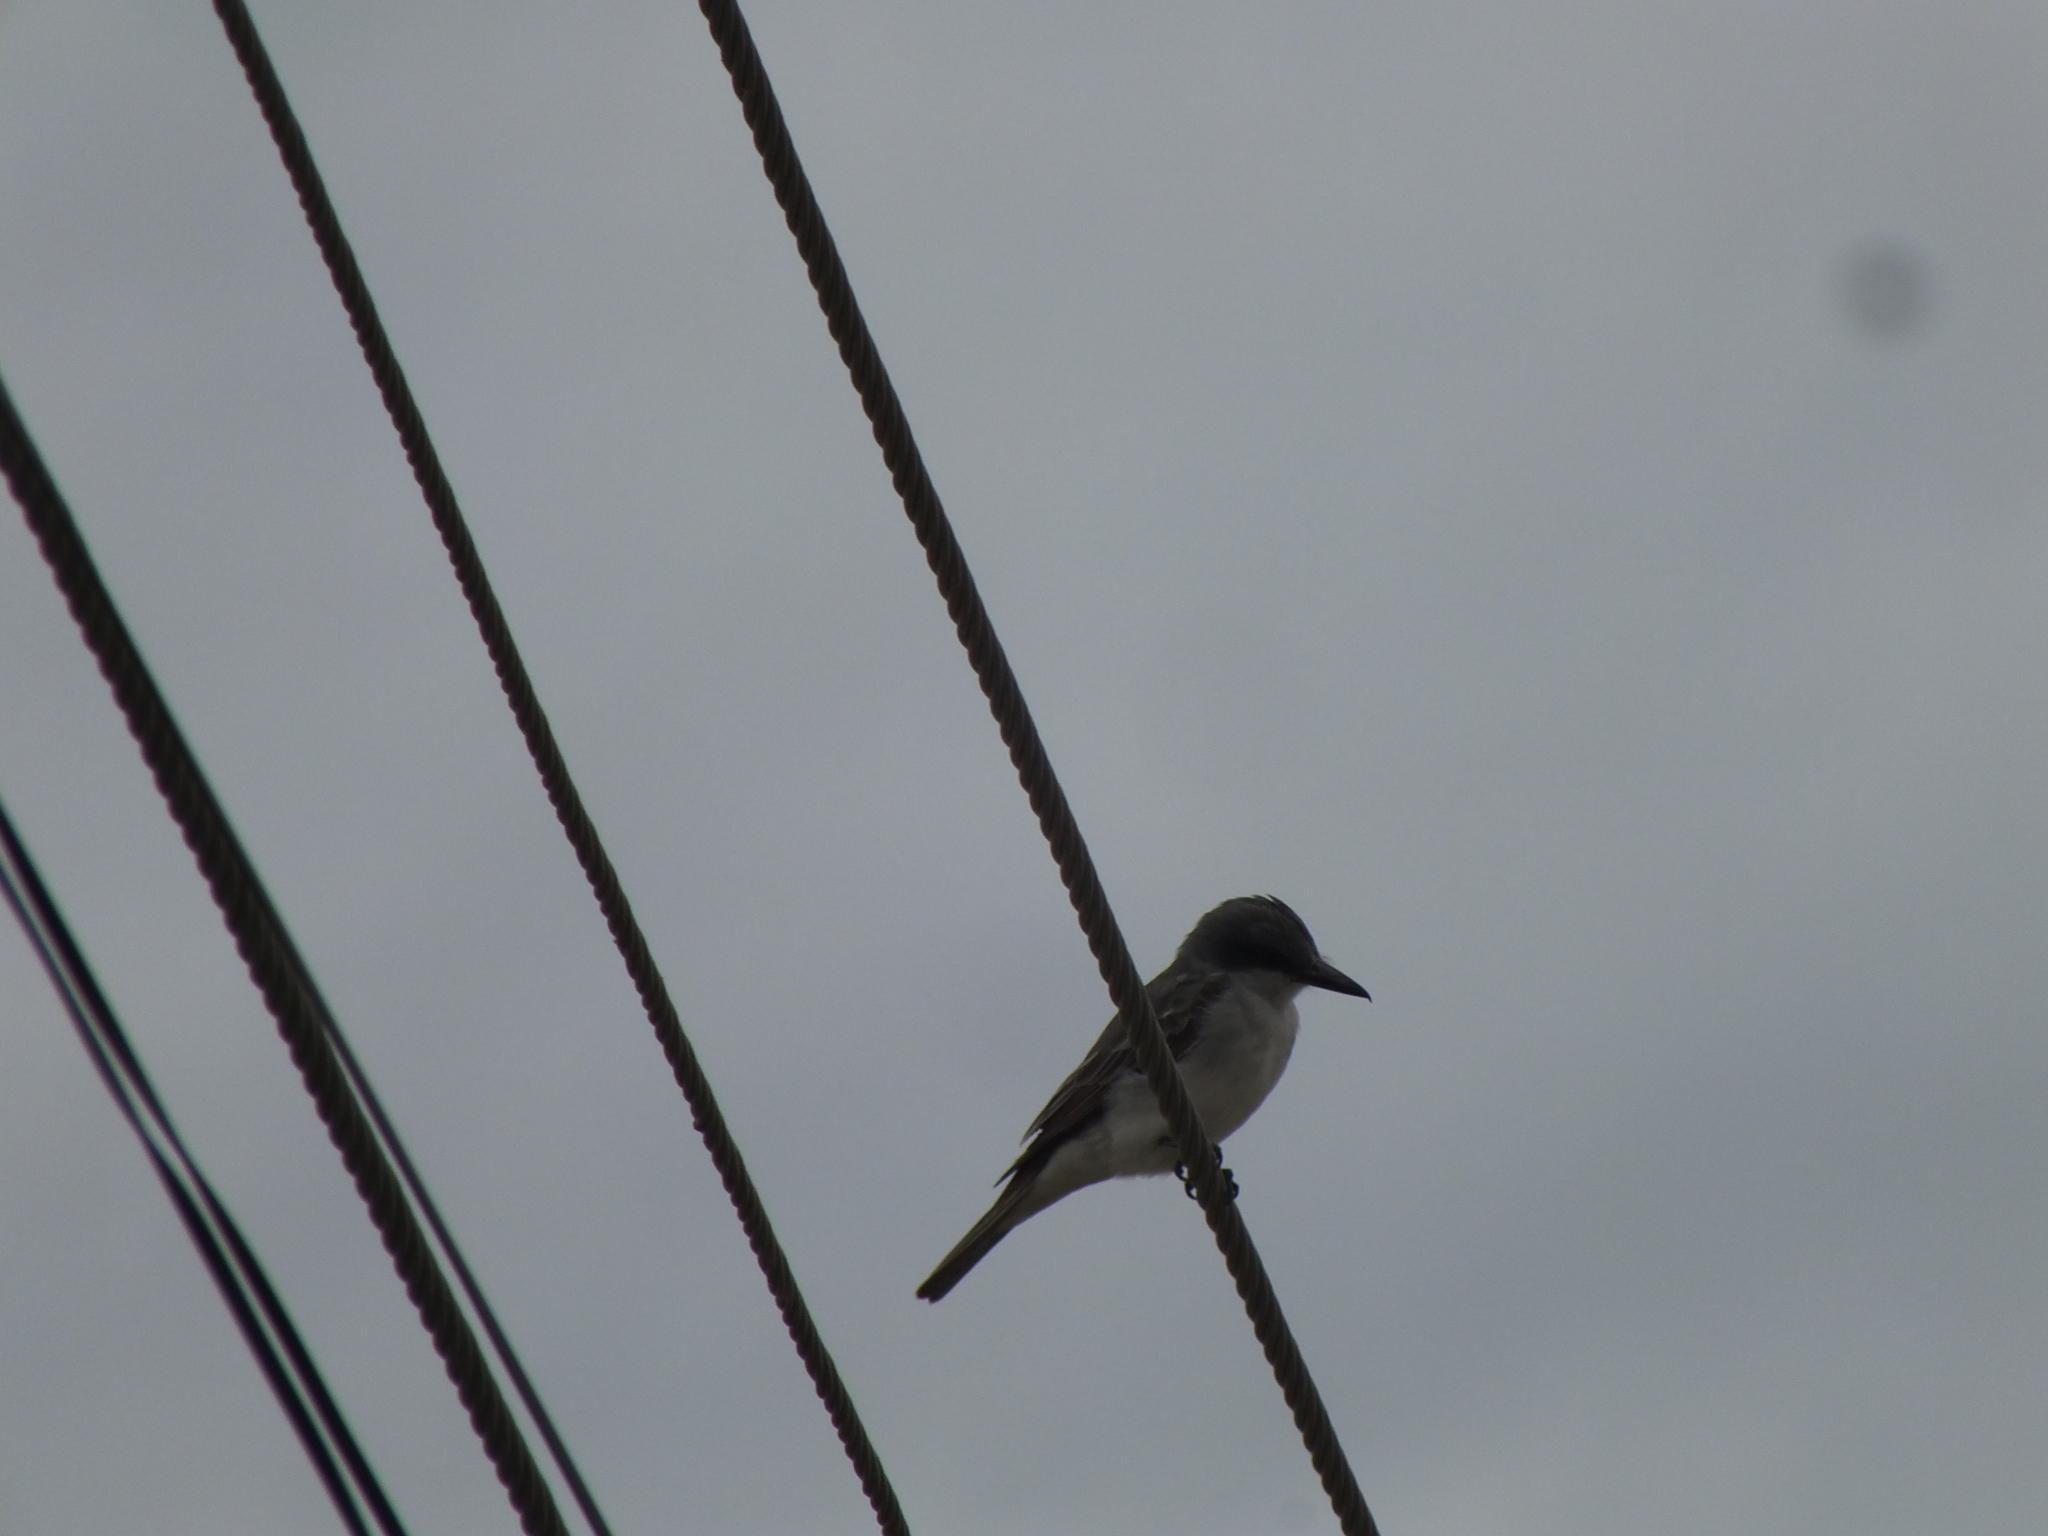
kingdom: Animalia
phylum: Chordata
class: Aves
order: Passeriformes
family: Tyrannidae
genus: Tyrannus
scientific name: Tyrannus dominicensis
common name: Gray kingbird
